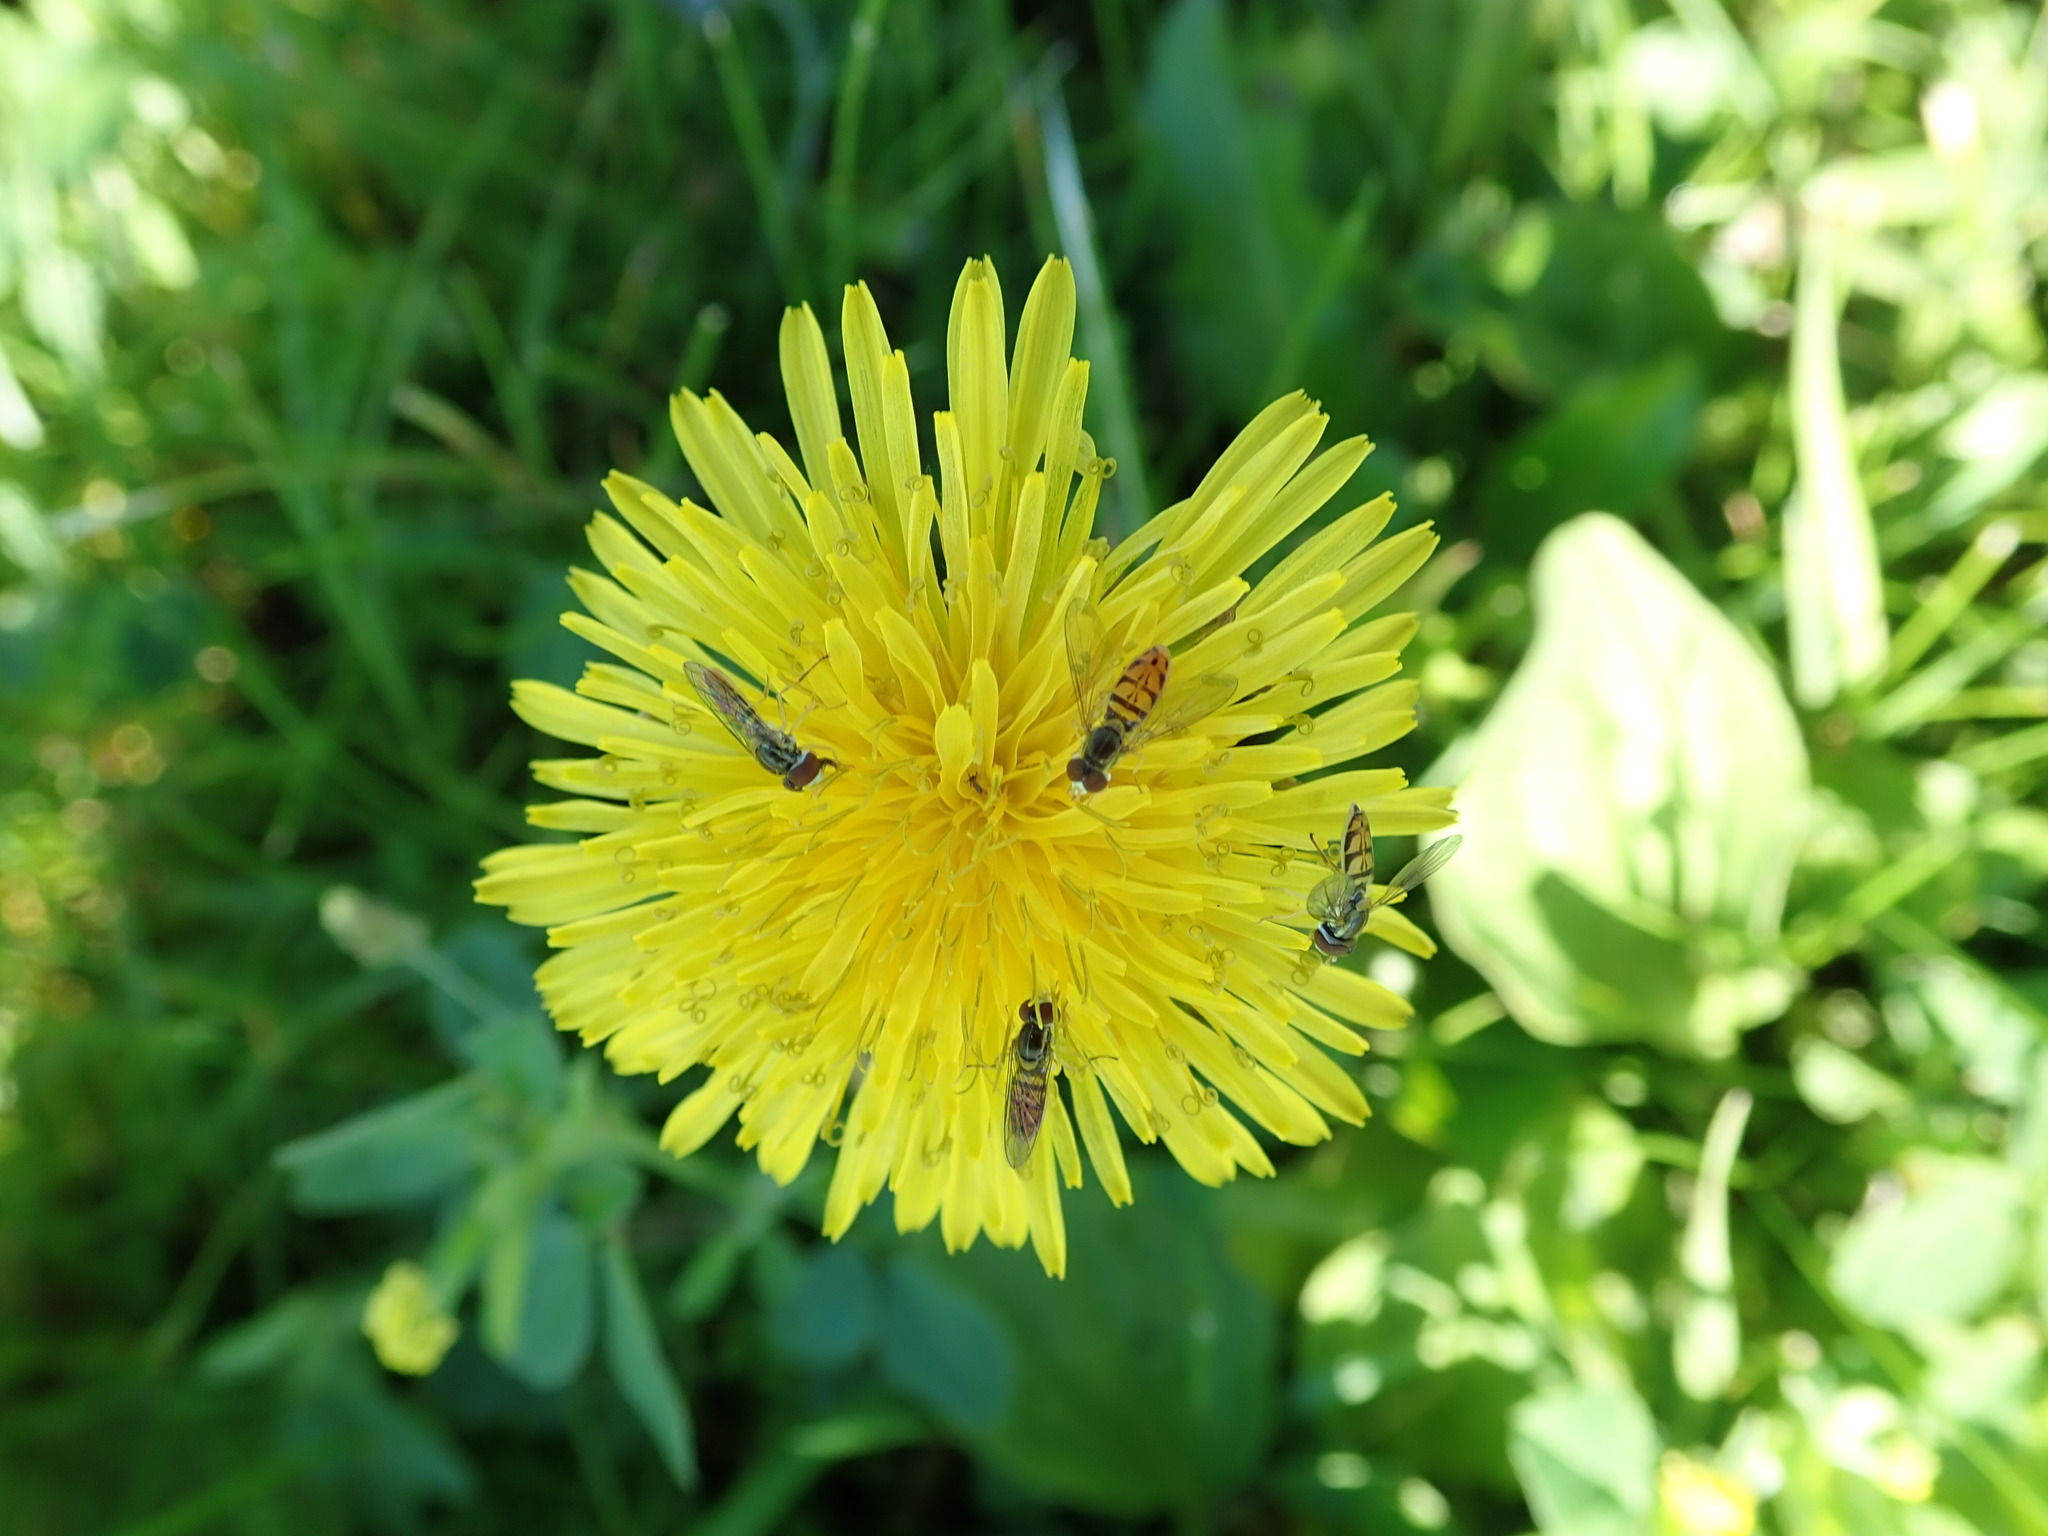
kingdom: Animalia
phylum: Arthropoda
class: Insecta
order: Diptera
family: Syrphidae
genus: Toxomerus
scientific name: Toxomerus marginatus
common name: Syrphid fly
